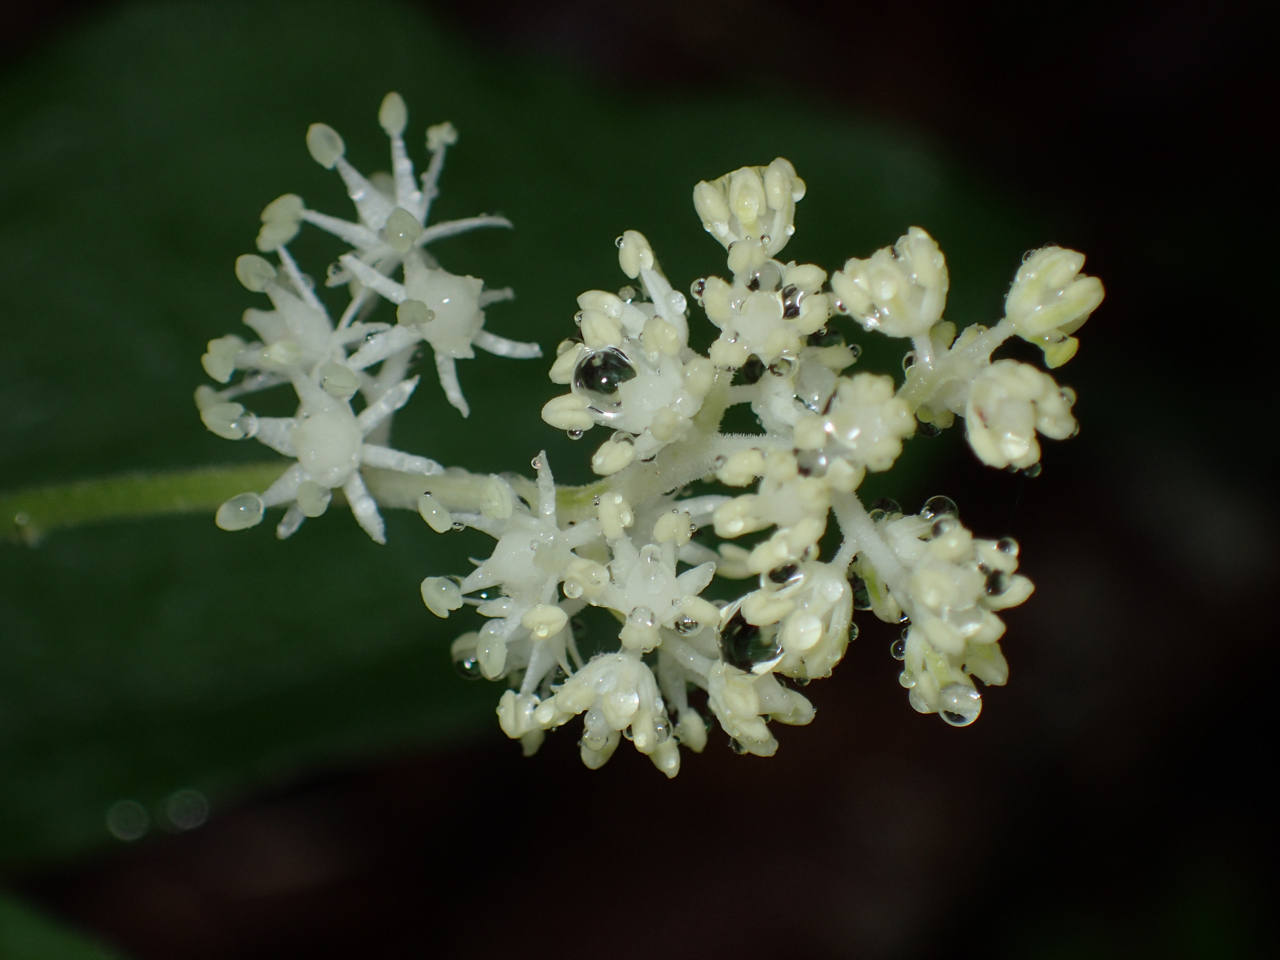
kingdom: Plantae
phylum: Tracheophyta
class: Liliopsida
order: Asparagales
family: Asparagaceae
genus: Maianthemum
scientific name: Maianthemum racemosum
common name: False spikenard
